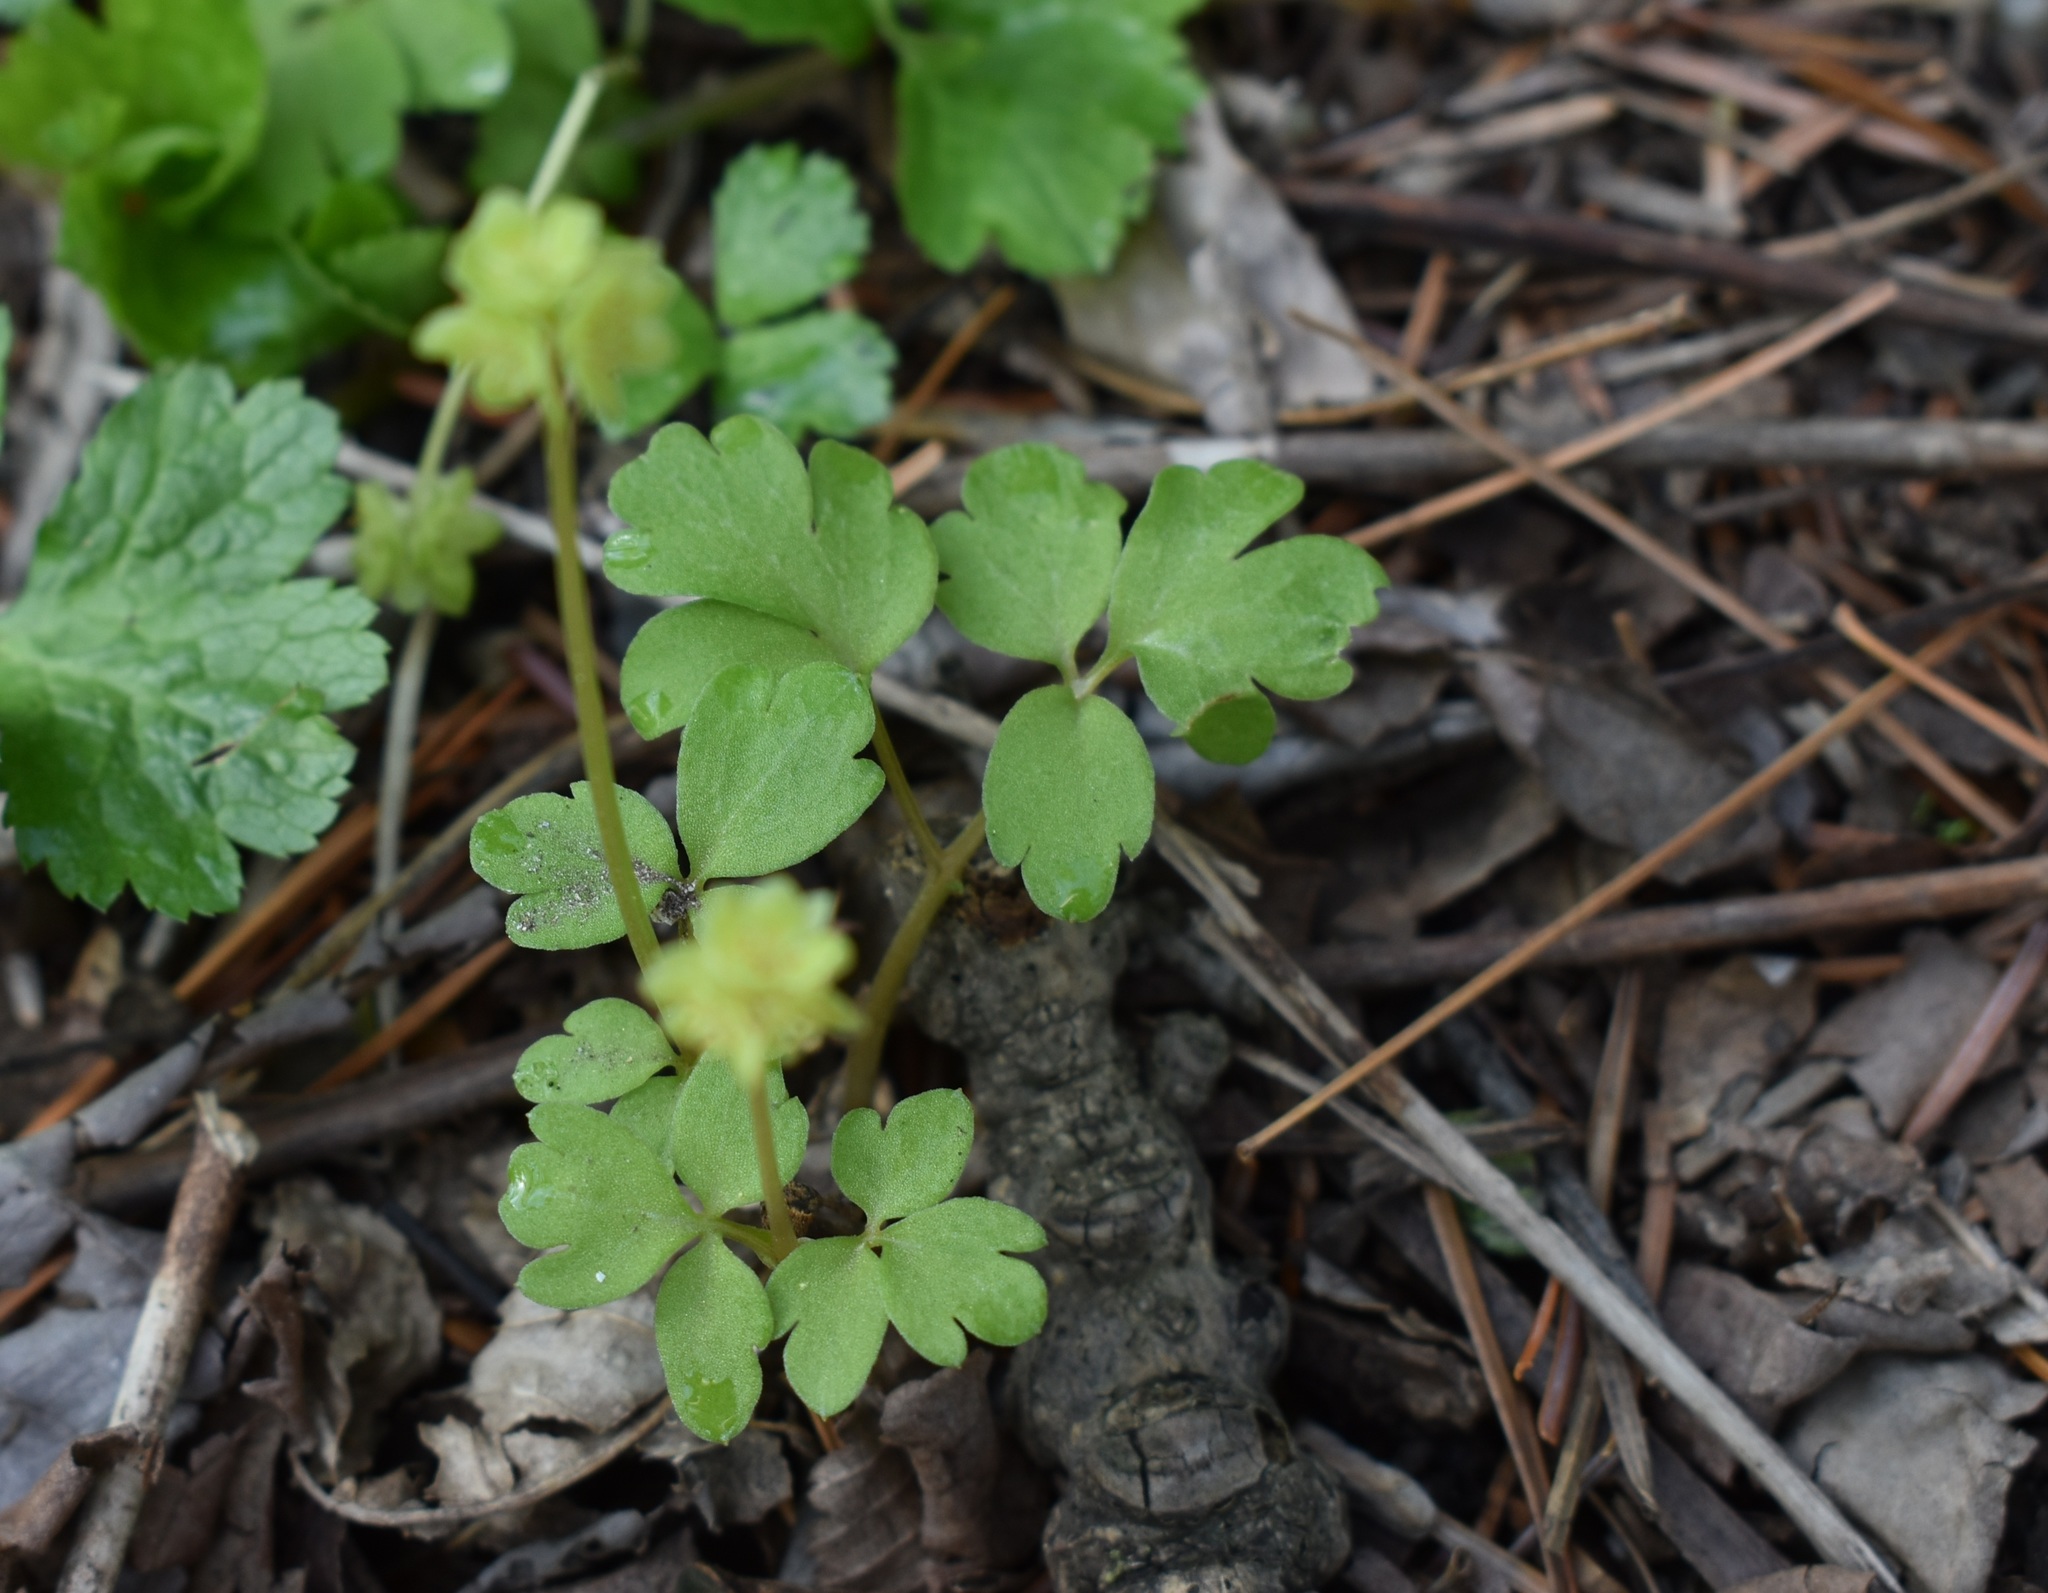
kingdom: Plantae
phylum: Tracheophyta
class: Magnoliopsida
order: Dipsacales
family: Viburnaceae
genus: Adoxa
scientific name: Adoxa moschatellina
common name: Moschatel
